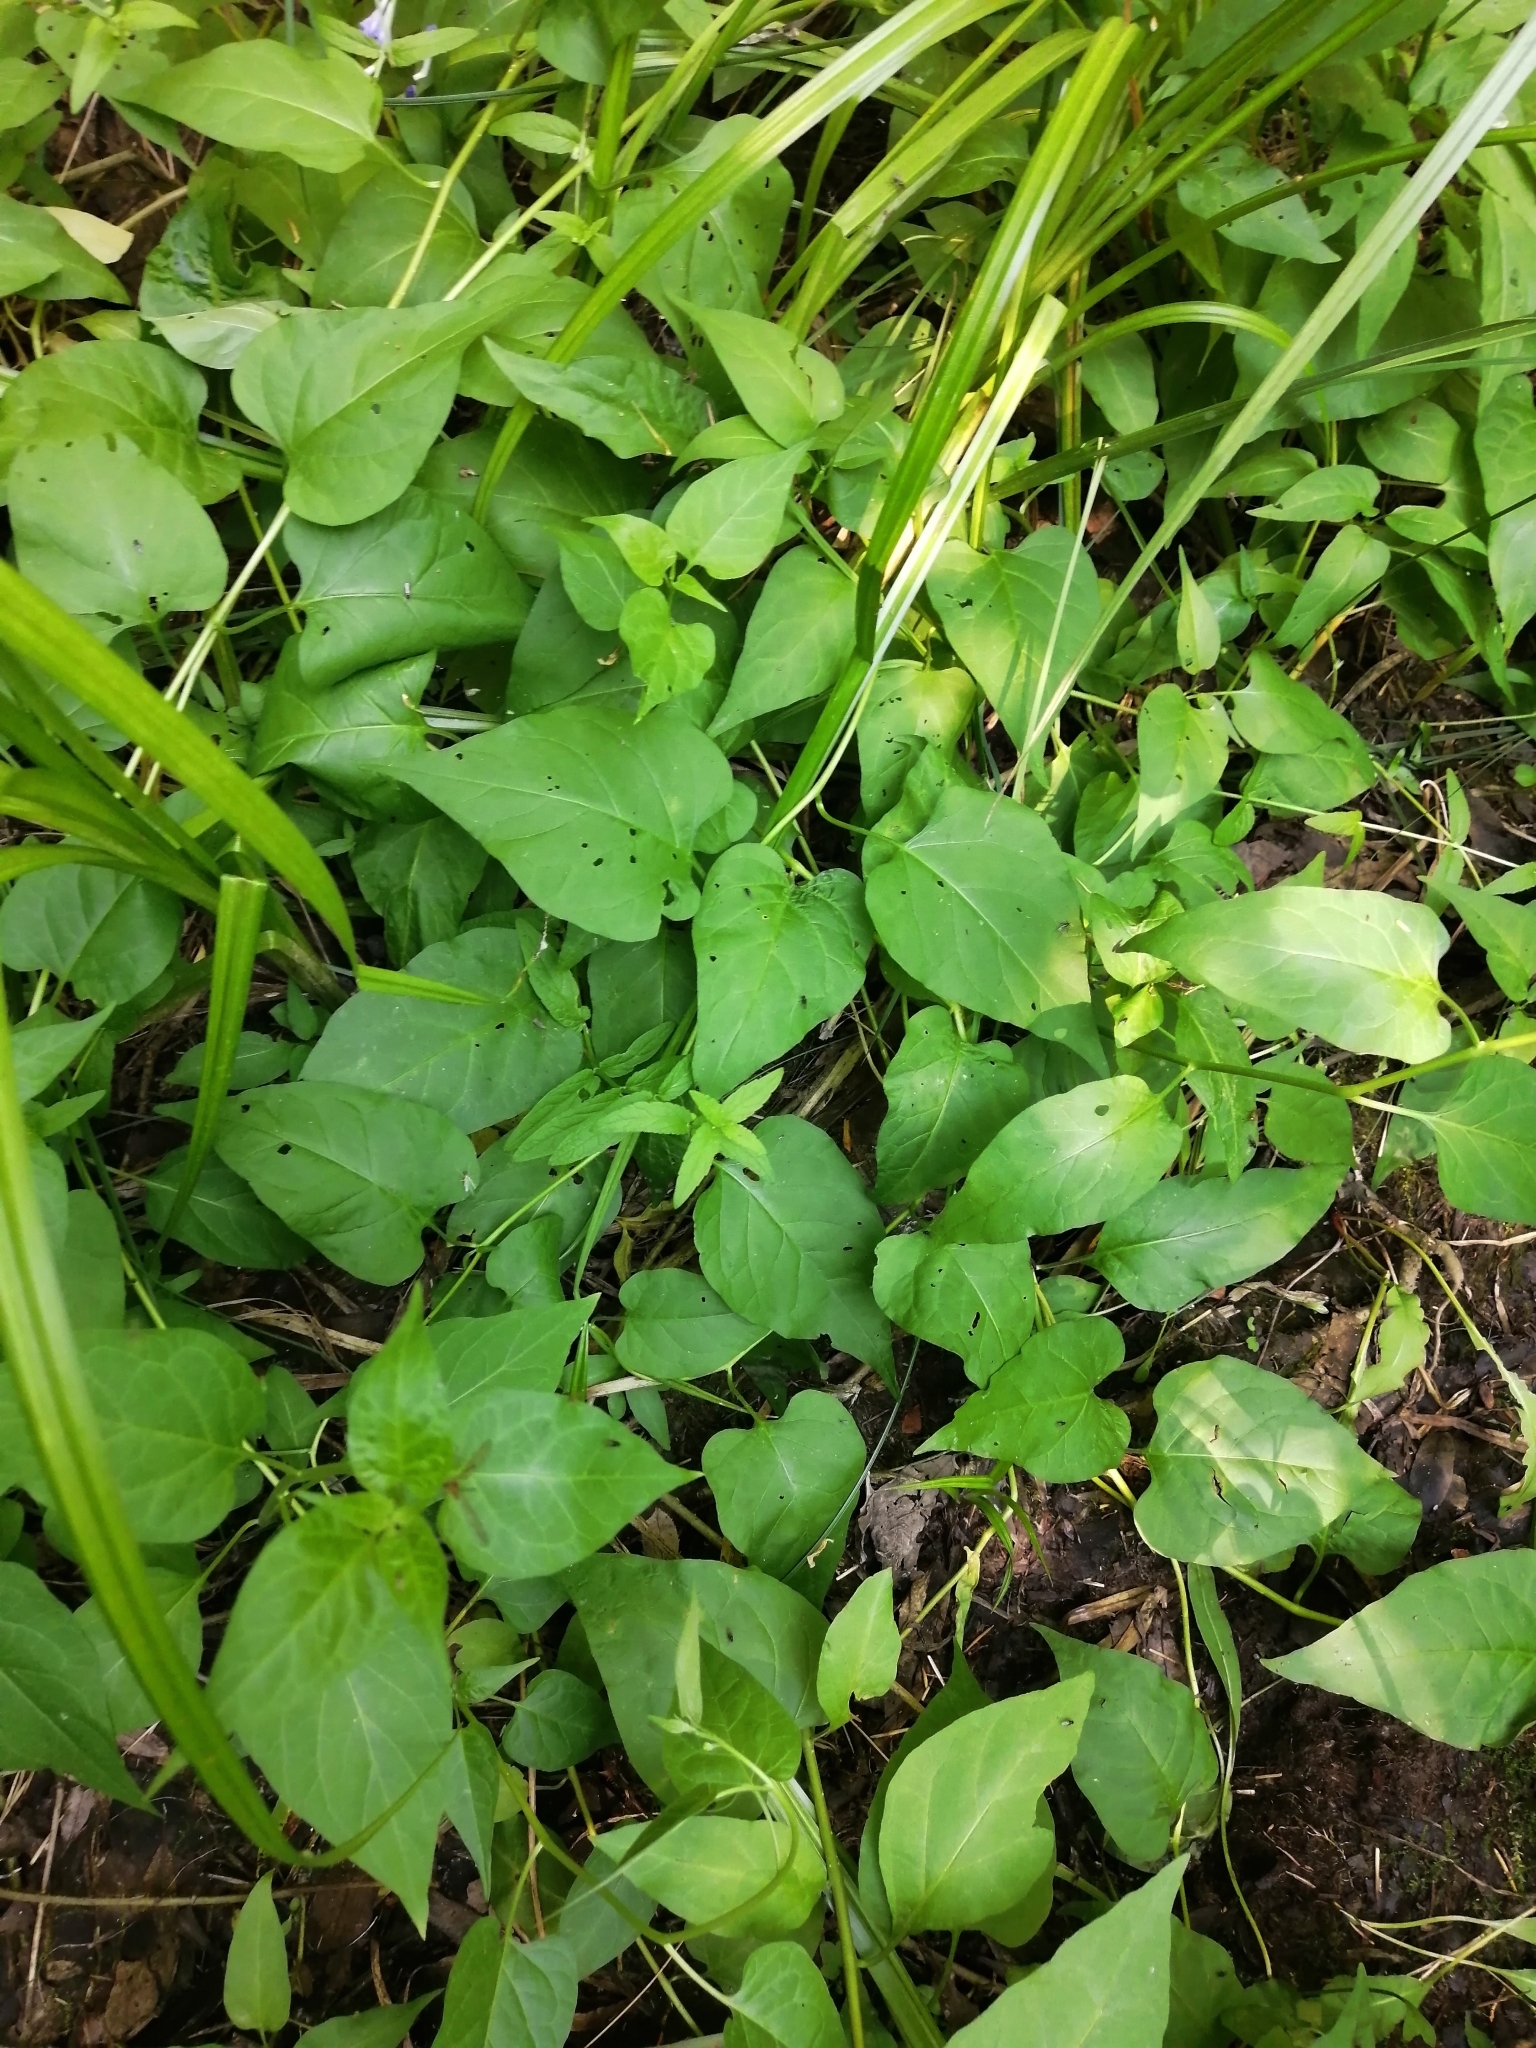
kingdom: Plantae
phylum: Tracheophyta
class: Magnoliopsida
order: Solanales
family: Solanaceae
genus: Solanum
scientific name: Solanum dulcamara
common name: Climbing nightshade
